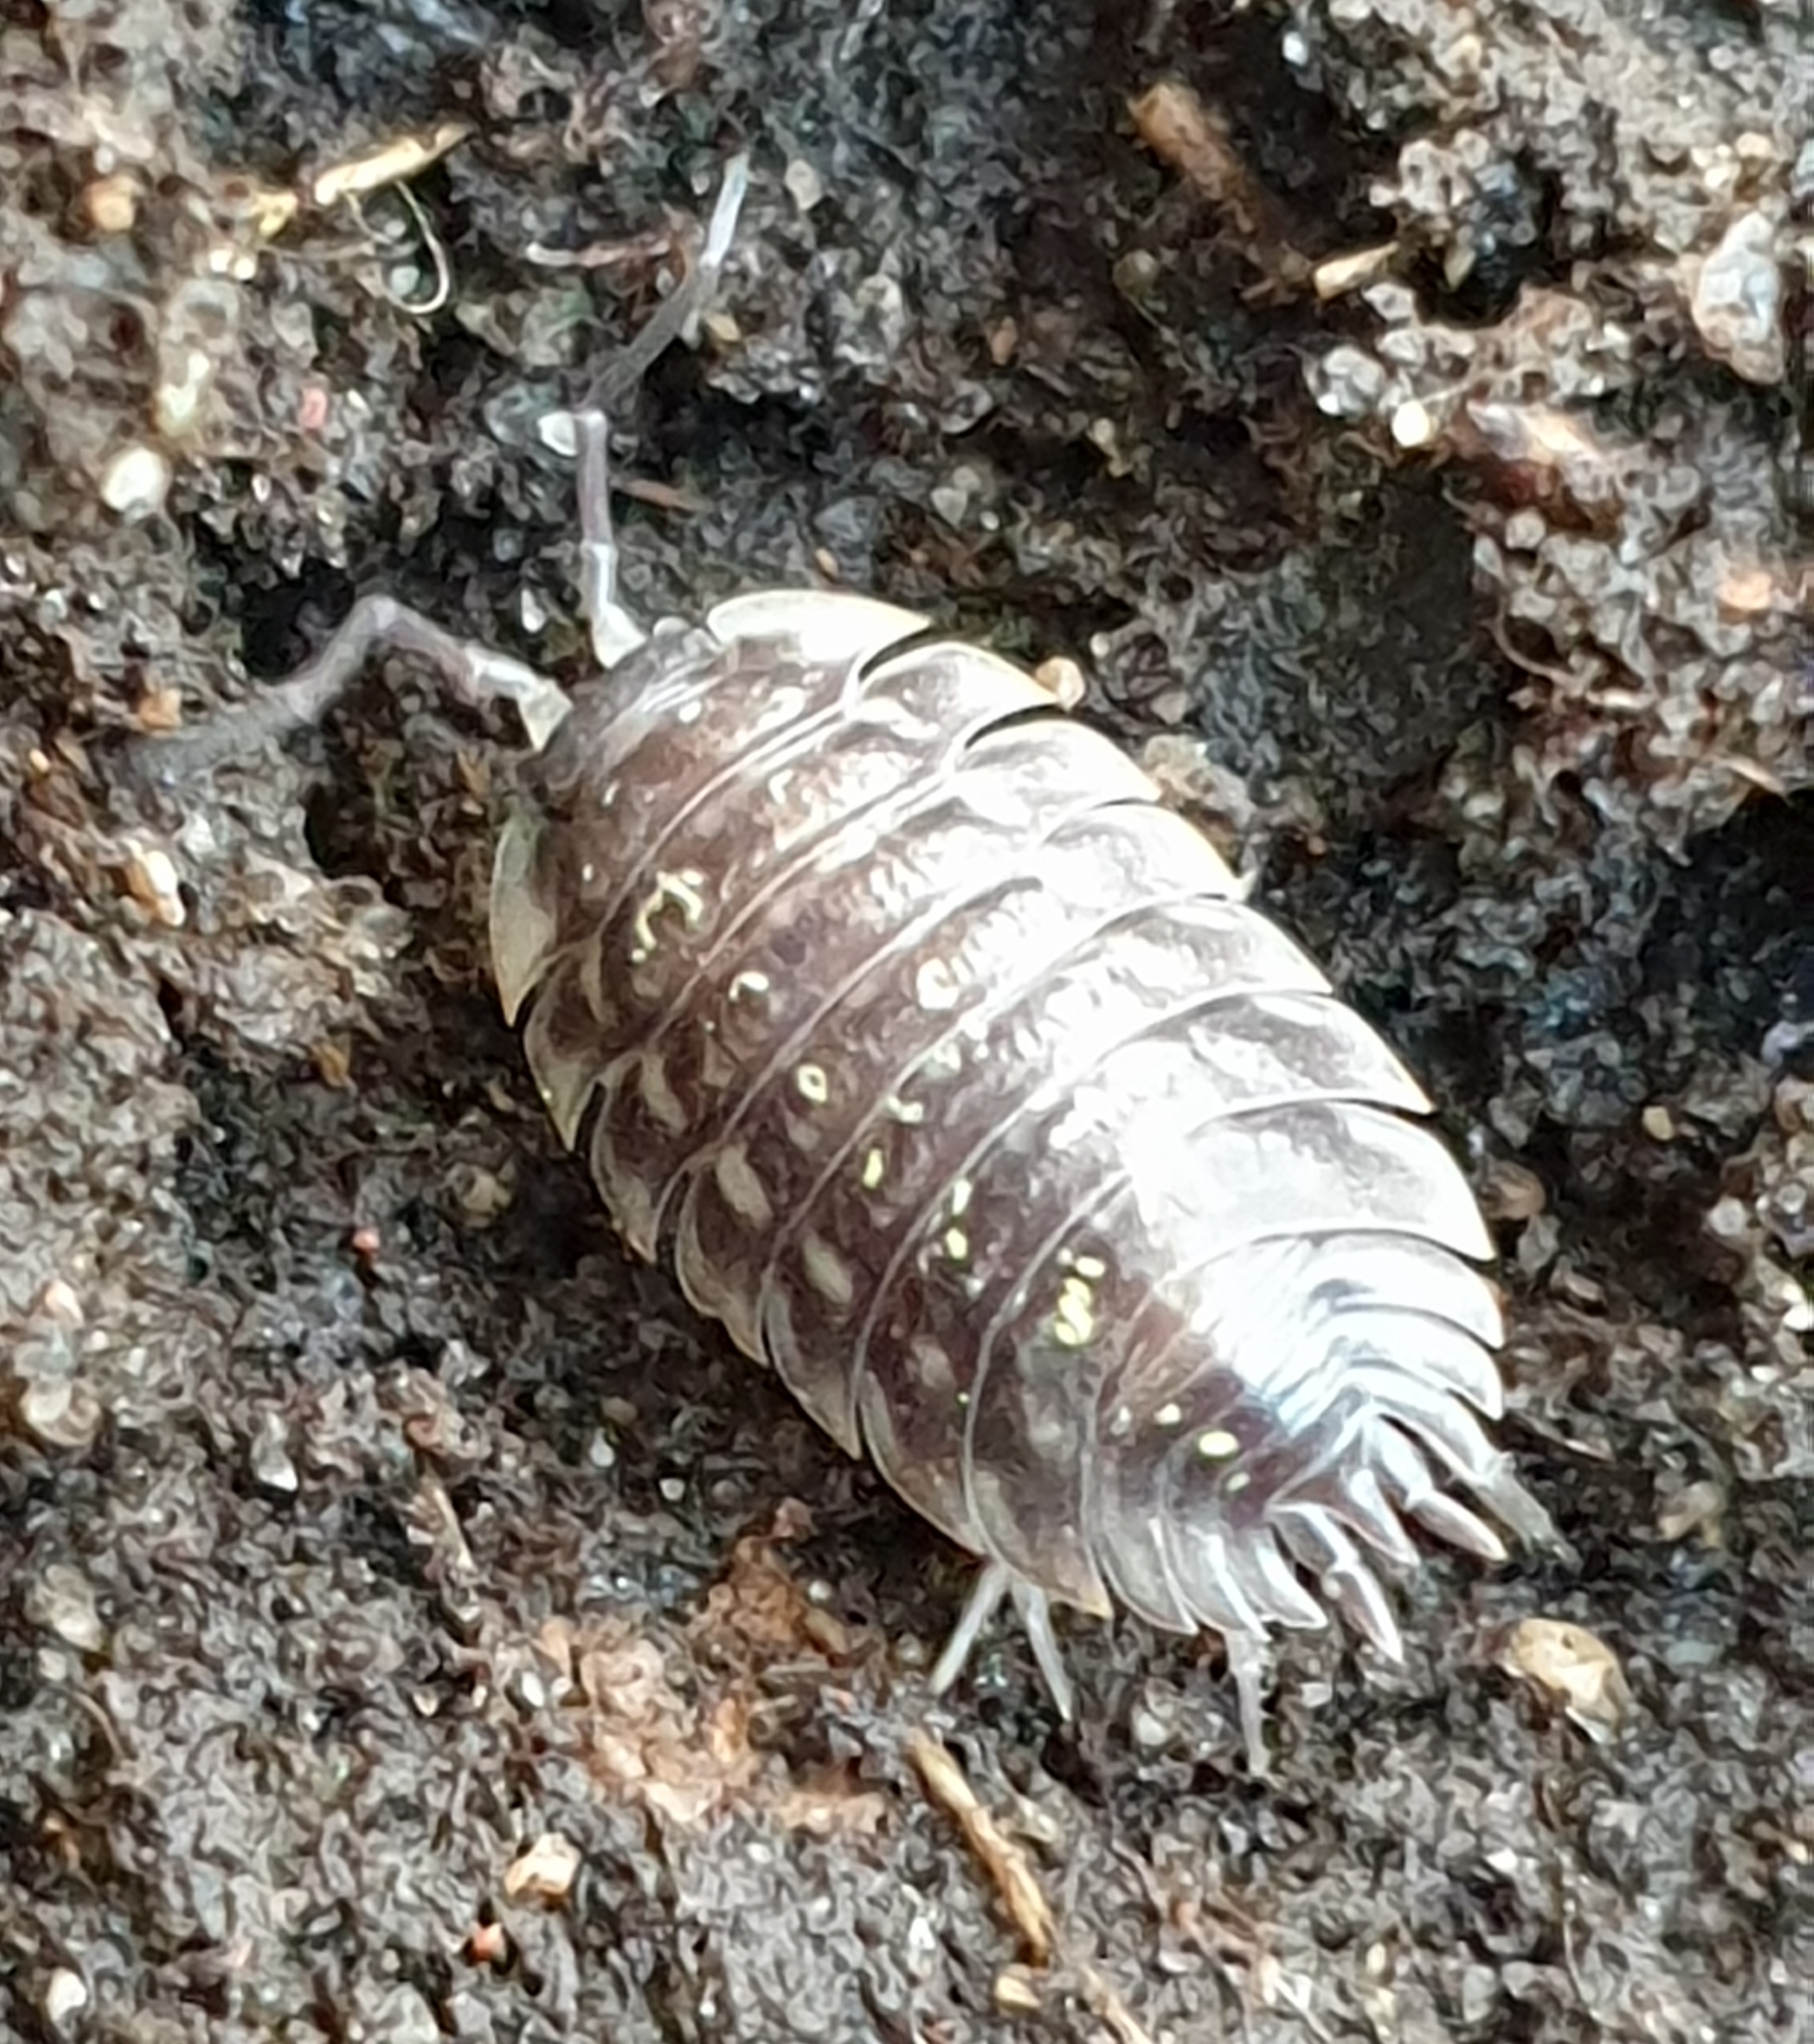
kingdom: Animalia
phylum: Arthropoda
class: Malacostraca
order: Isopoda
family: Oniscidae
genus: Oniscus
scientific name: Oniscus asellus
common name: Common shiny woodlouse
